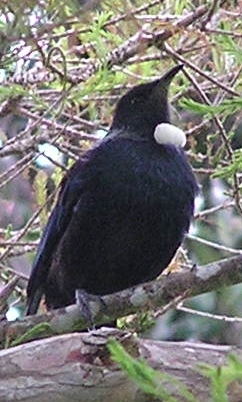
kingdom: Animalia
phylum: Chordata
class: Aves
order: Passeriformes
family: Meliphagidae
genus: Prosthemadera
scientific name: Prosthemadera novaeseelandiae
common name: Tui
